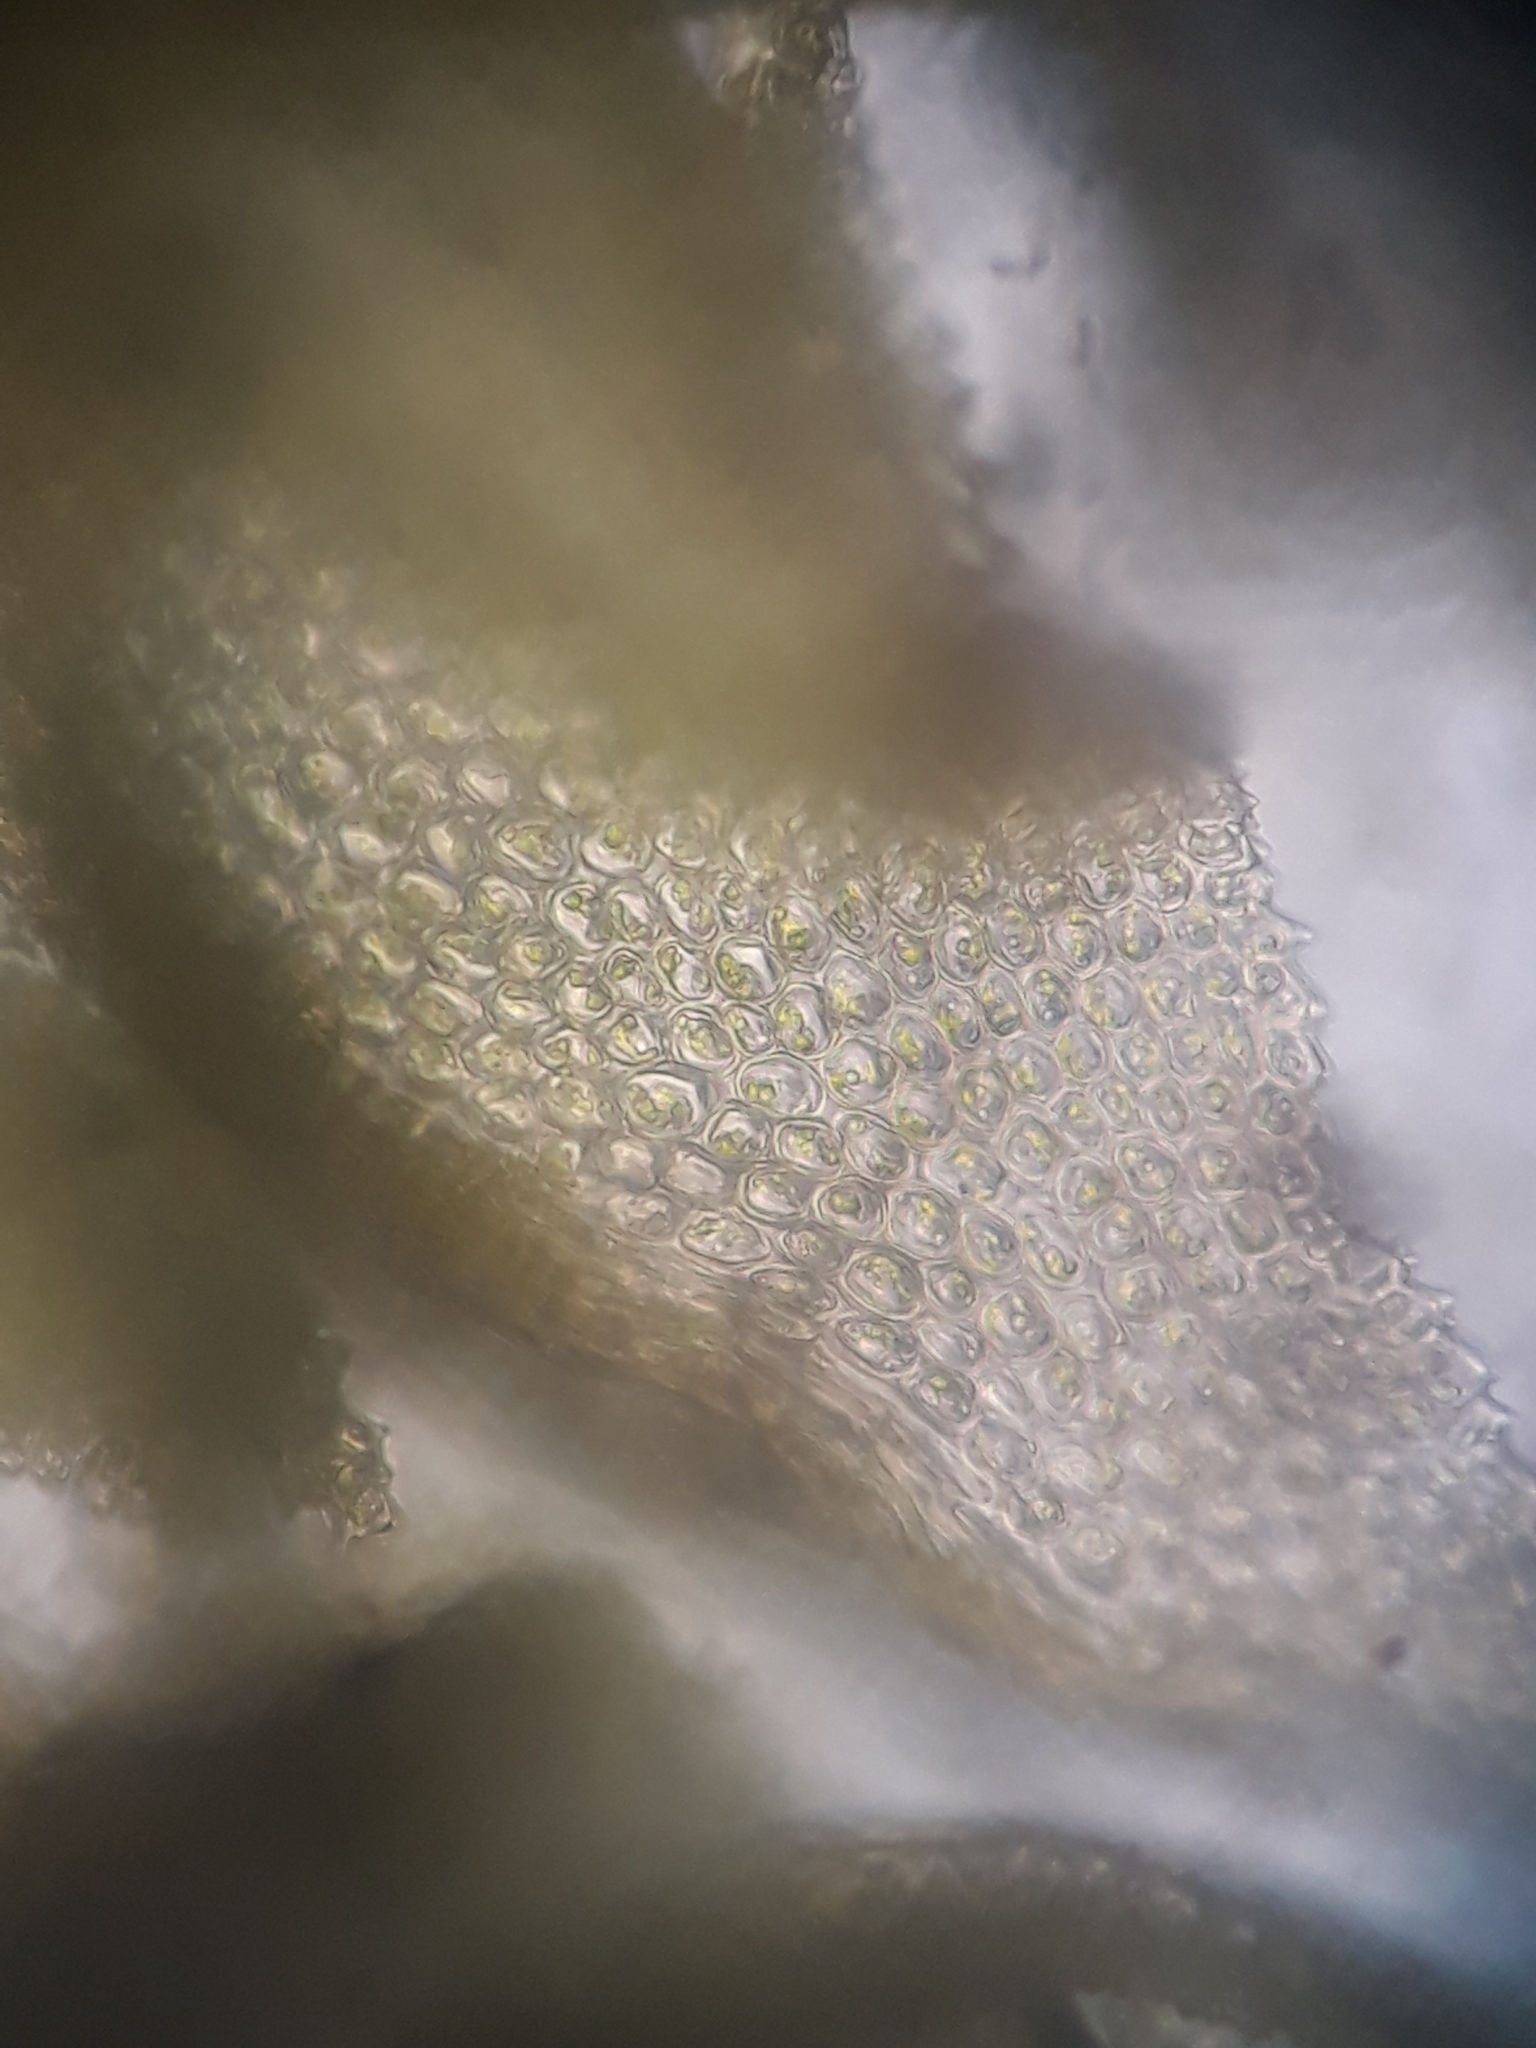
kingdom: Plantae
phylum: Bryophyta
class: Bryopsida
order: Hypnales
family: Thuidiaceae
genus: Thuidium
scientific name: Thuidium laeviusculum
